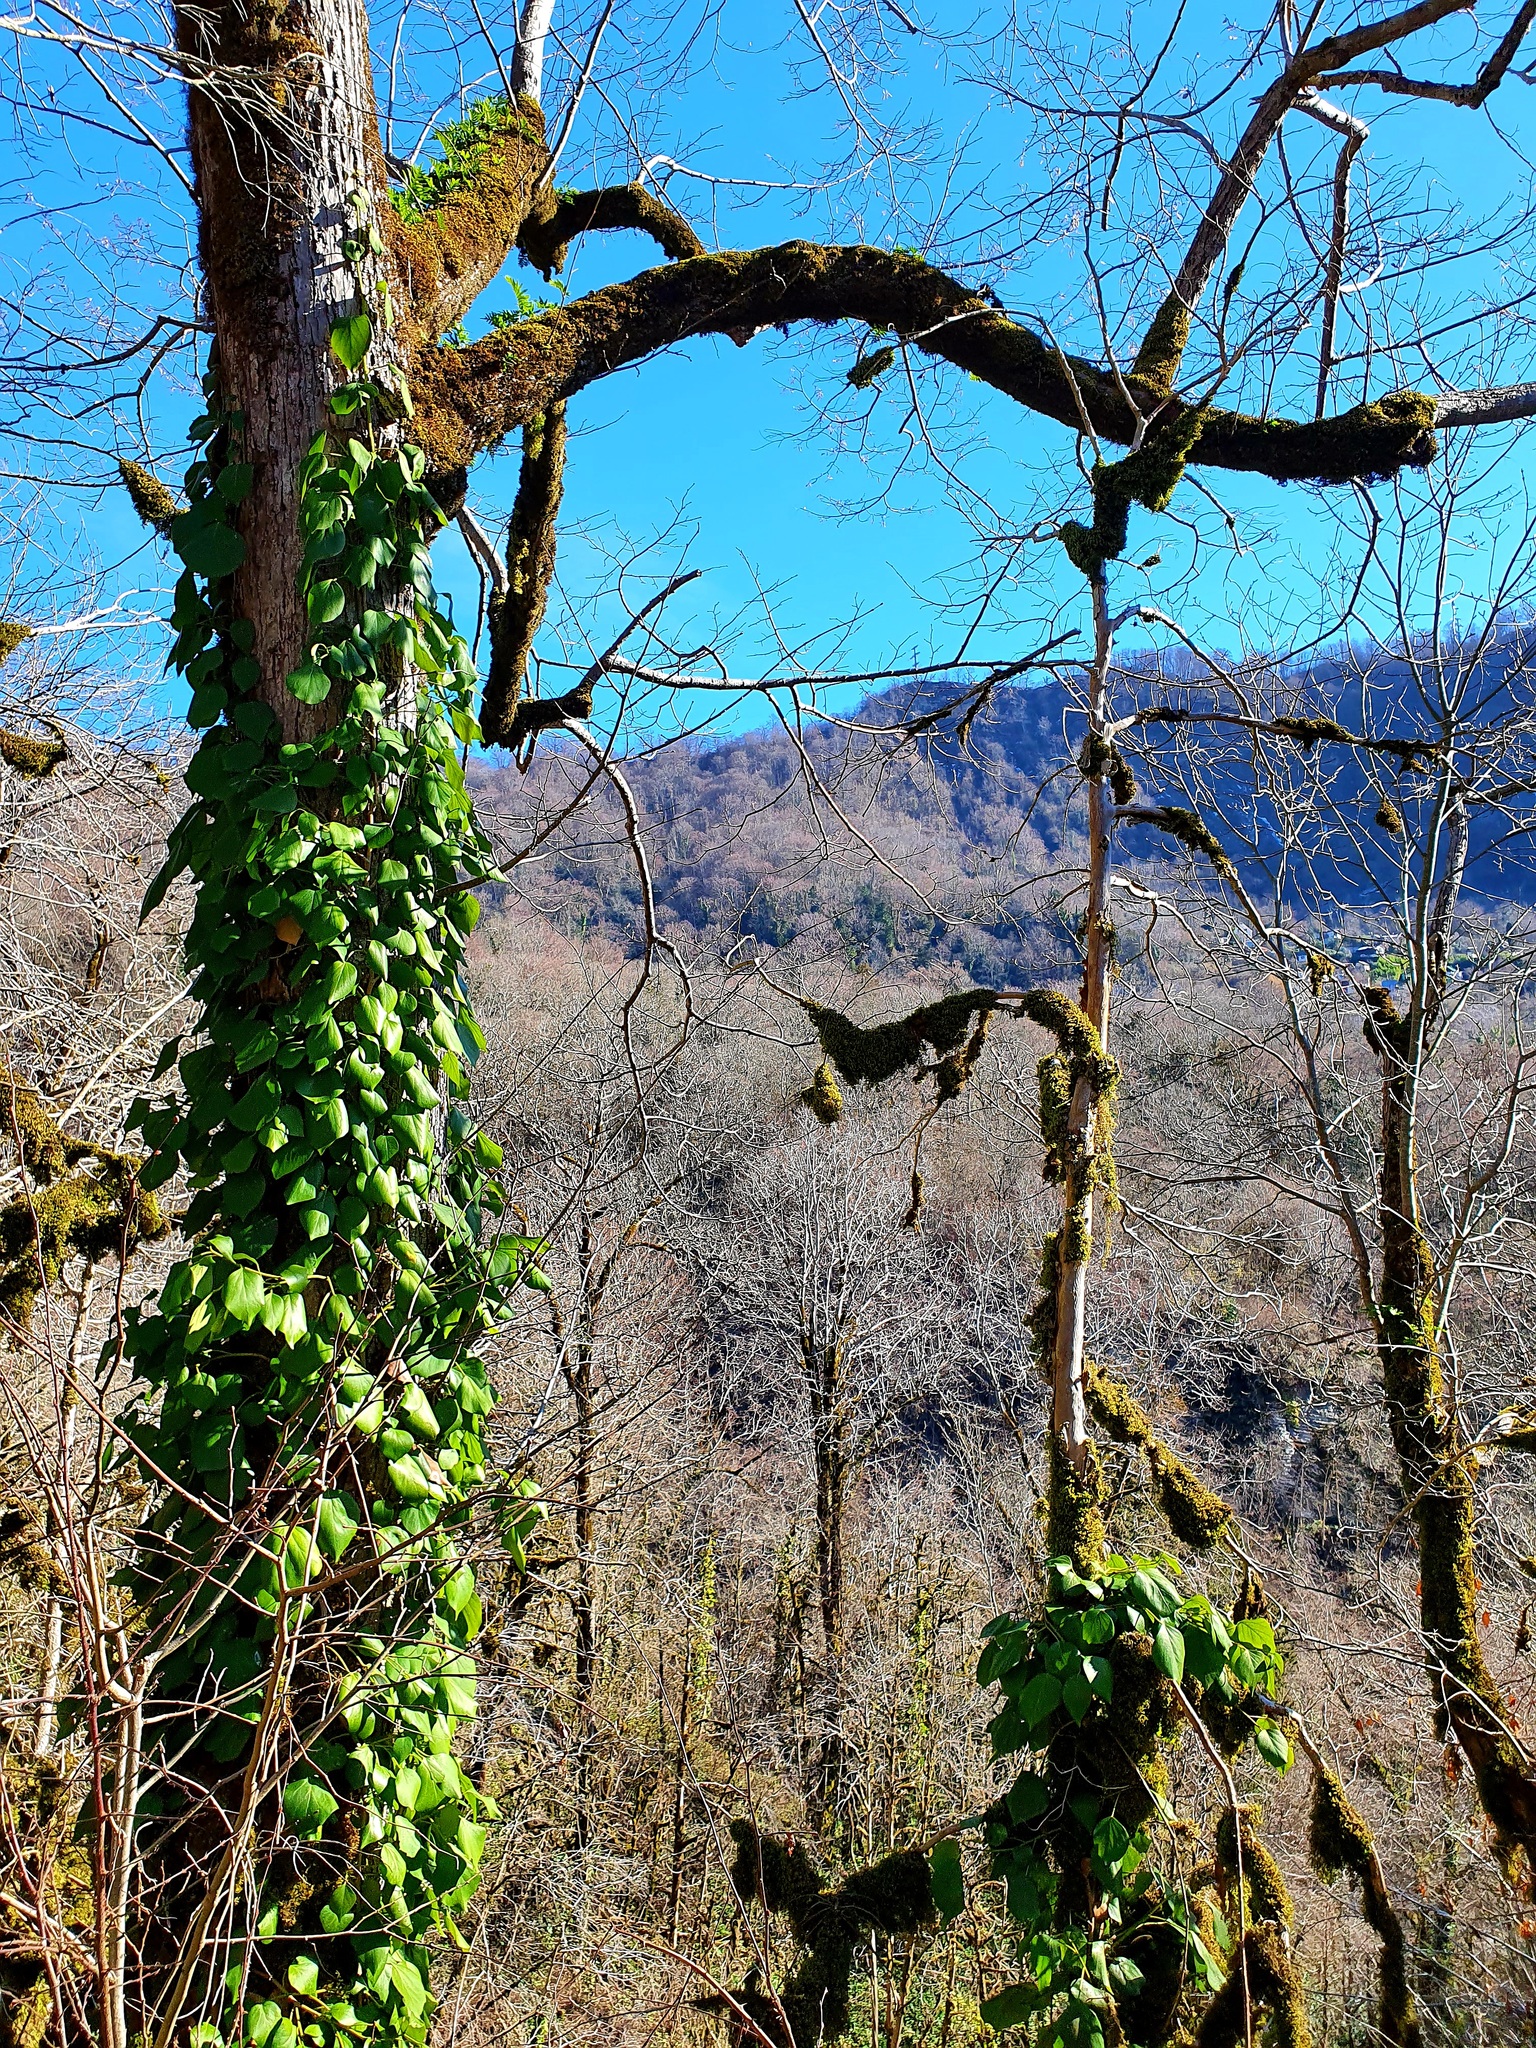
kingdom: Plantae
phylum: Tracheophyta
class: Magnoliopsida
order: Apiales
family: Araliaceae
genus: Hedera
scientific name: Hedera colchica
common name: Persian ivy
